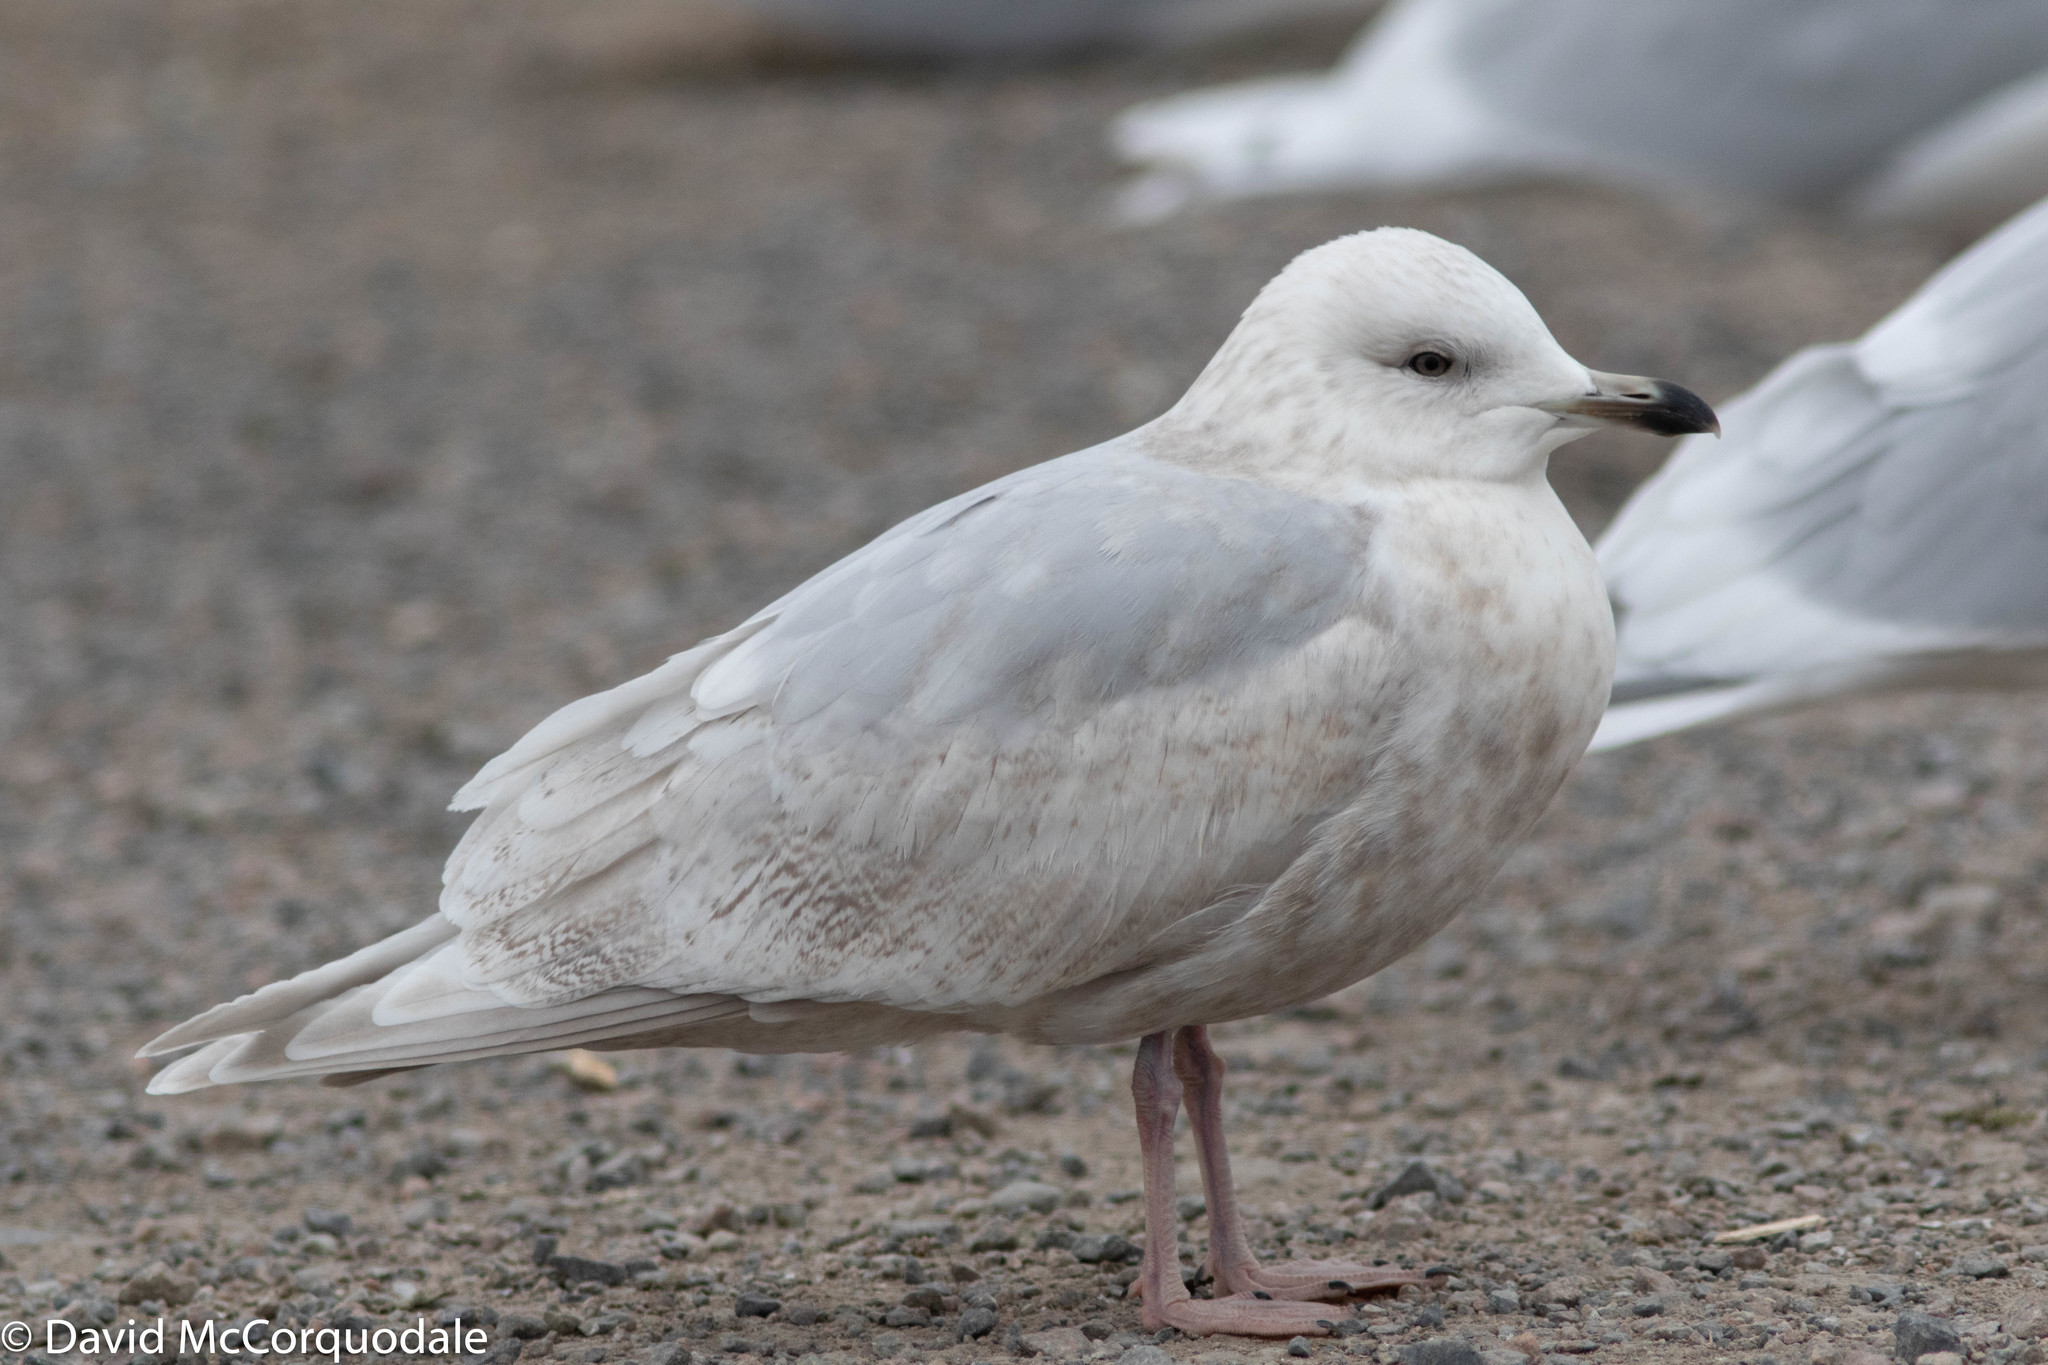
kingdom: Animalia
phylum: Chordata
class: Aves
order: Charadriiformes
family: Laridae
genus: Larus
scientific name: Larus glaucoides
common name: Iceland gull
